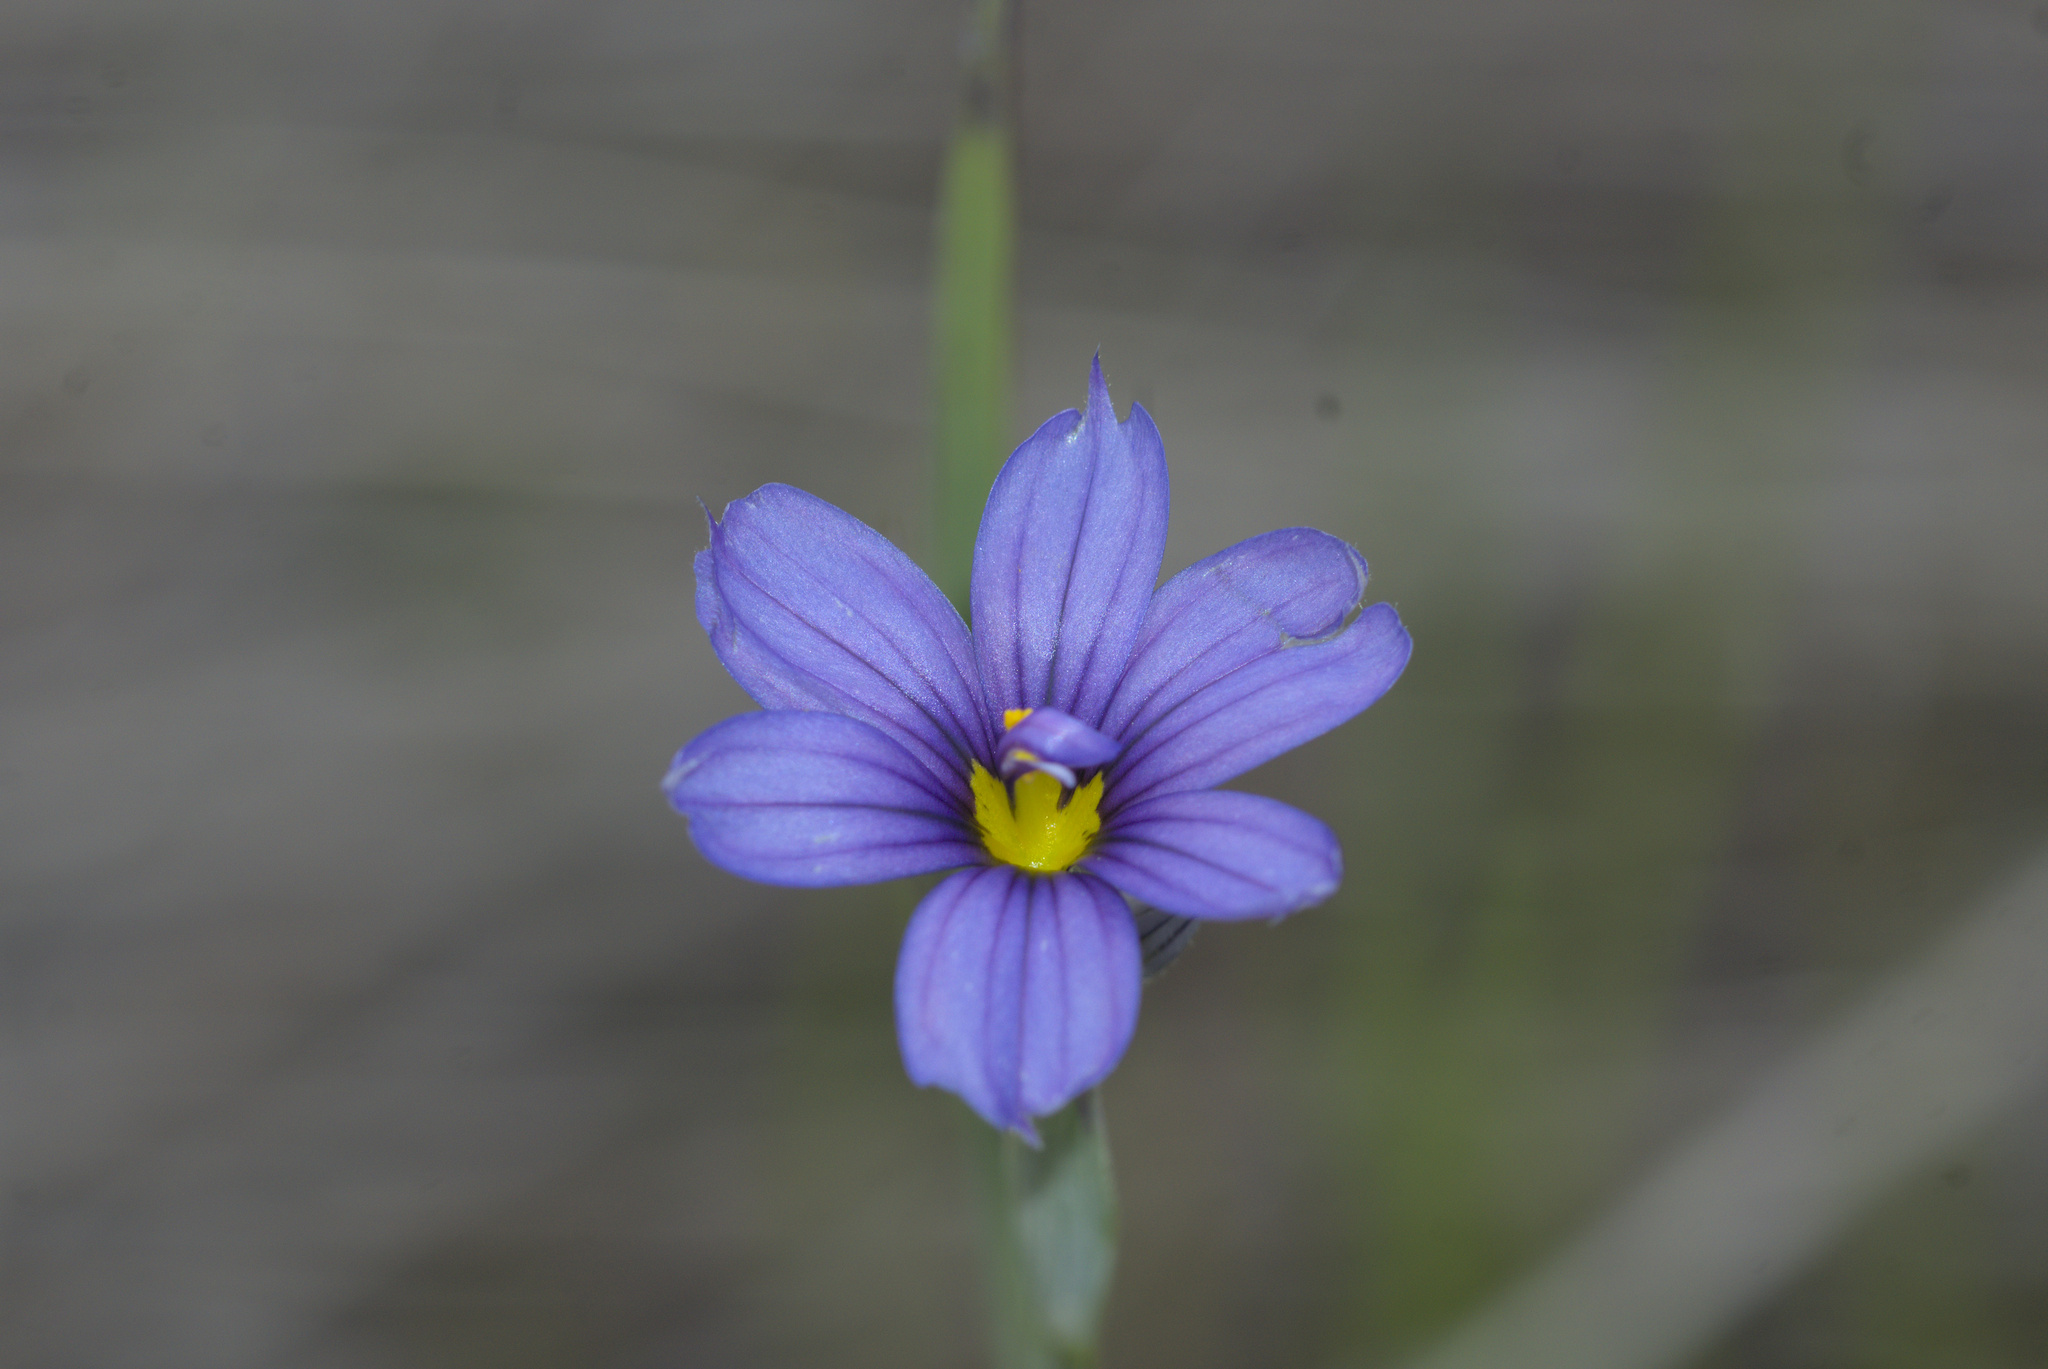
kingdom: Plantae
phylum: Tracheophyta
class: Liliopsida
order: Asparagales
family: Iridaceae
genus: Sisyrinchium
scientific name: Sisyrinchium bellum
